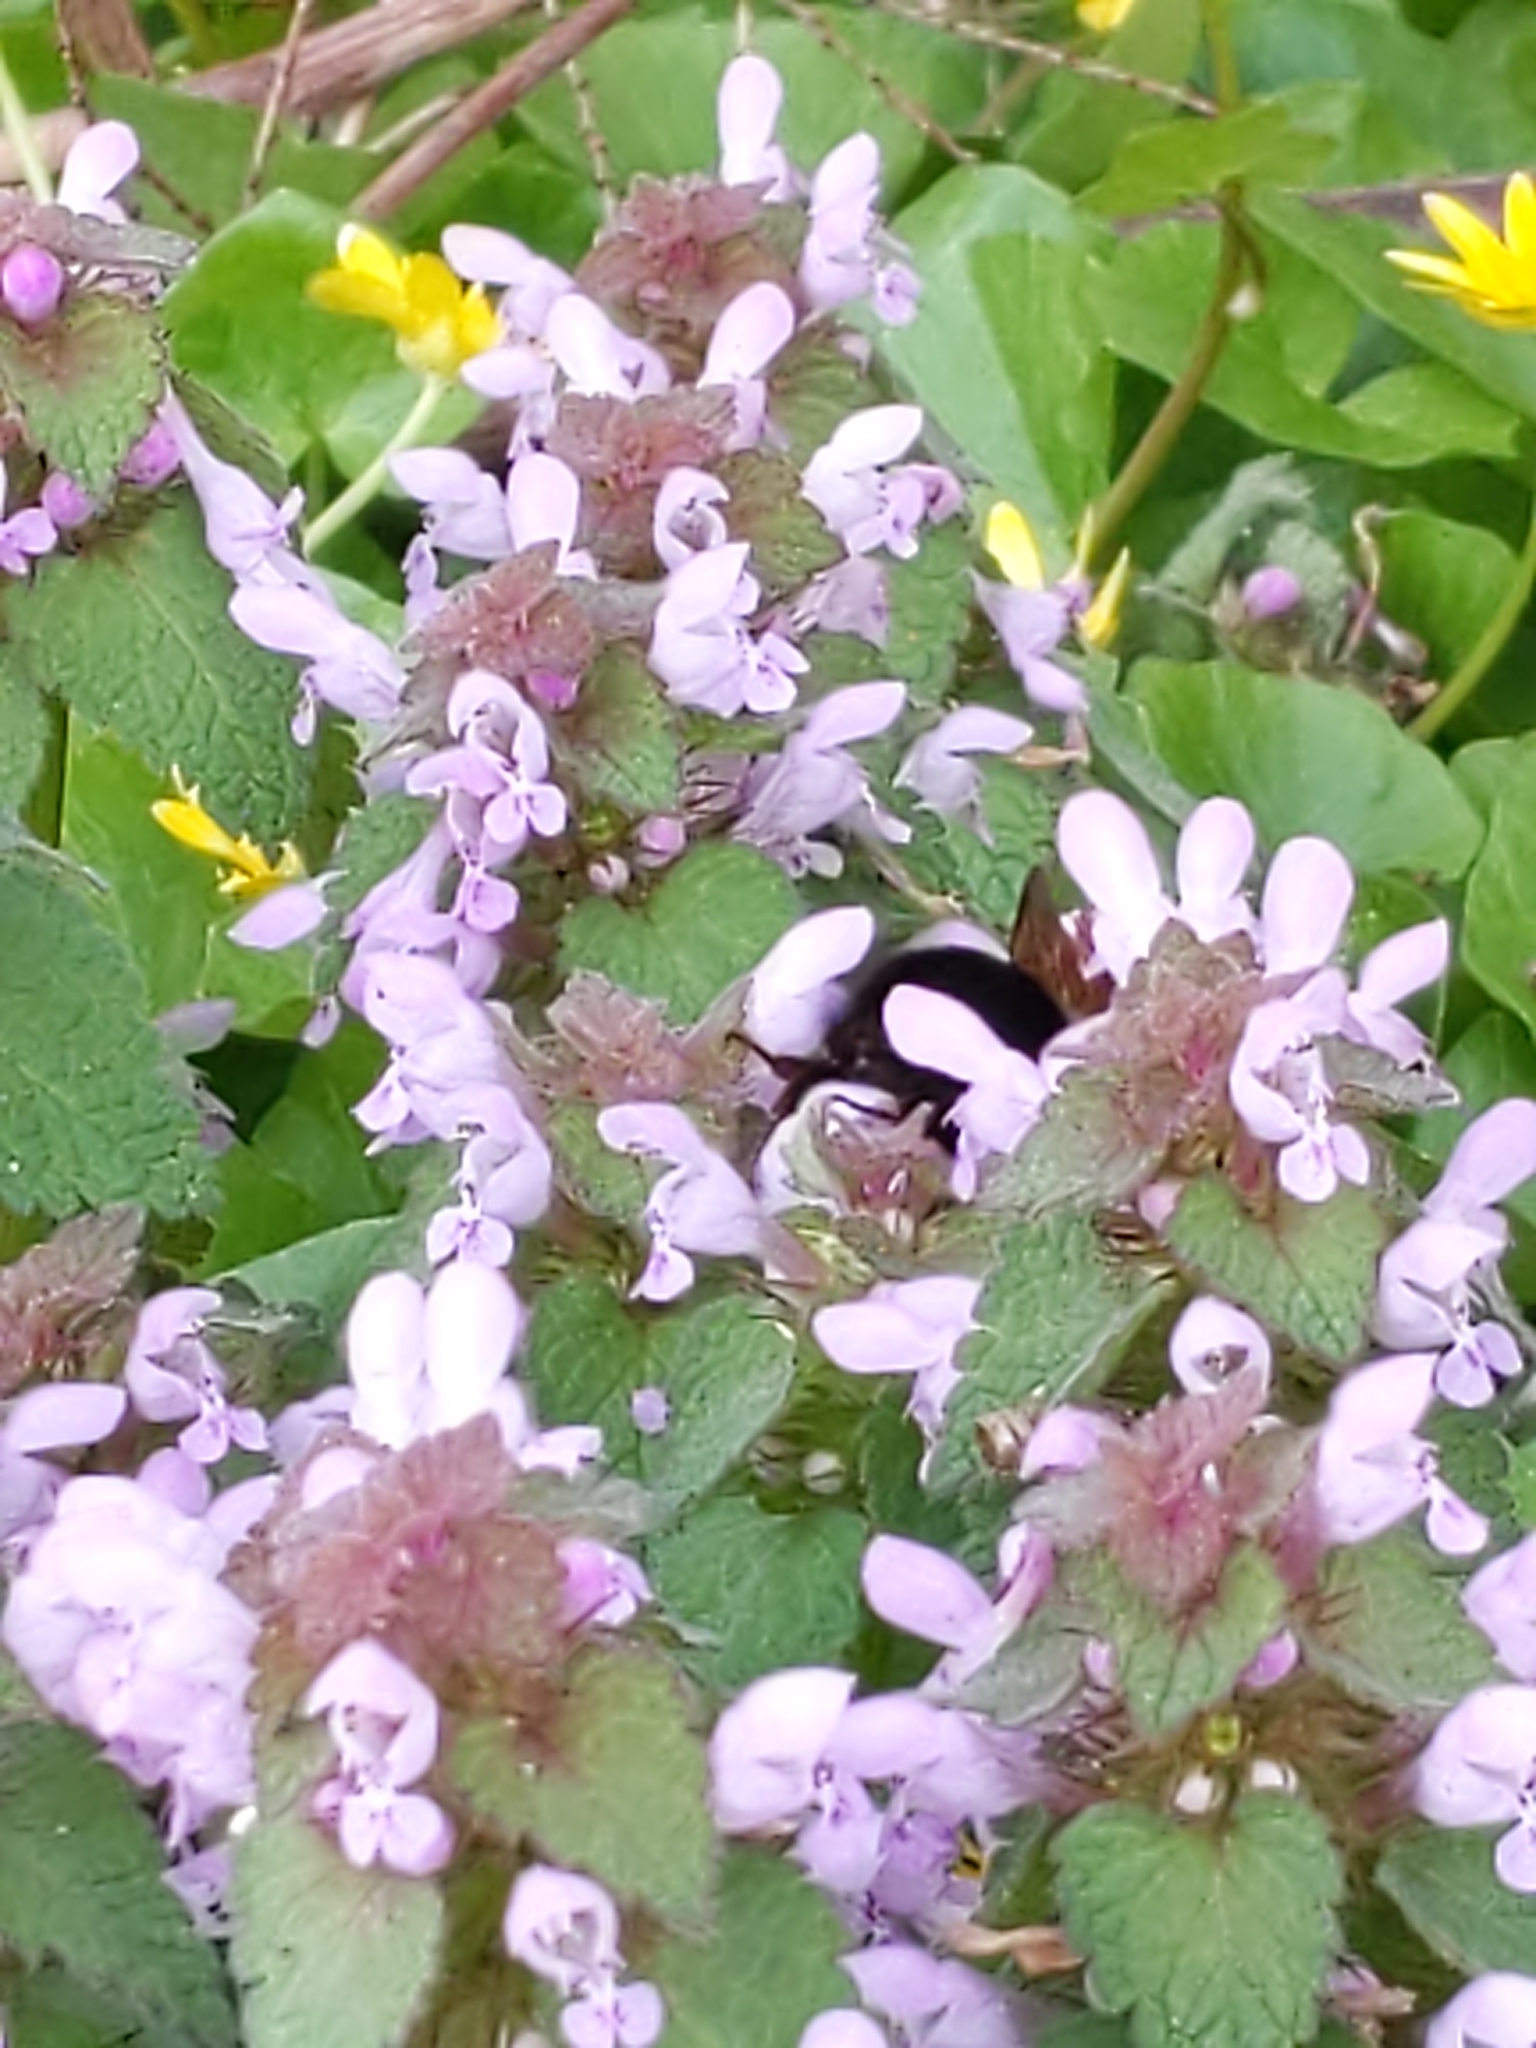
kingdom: Plantae
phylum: Tracheophyta
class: Magnoliopsida
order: Lamiales
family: Lamiaceae
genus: Lamium
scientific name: Lamium purpureum
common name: Red dead-nettle
